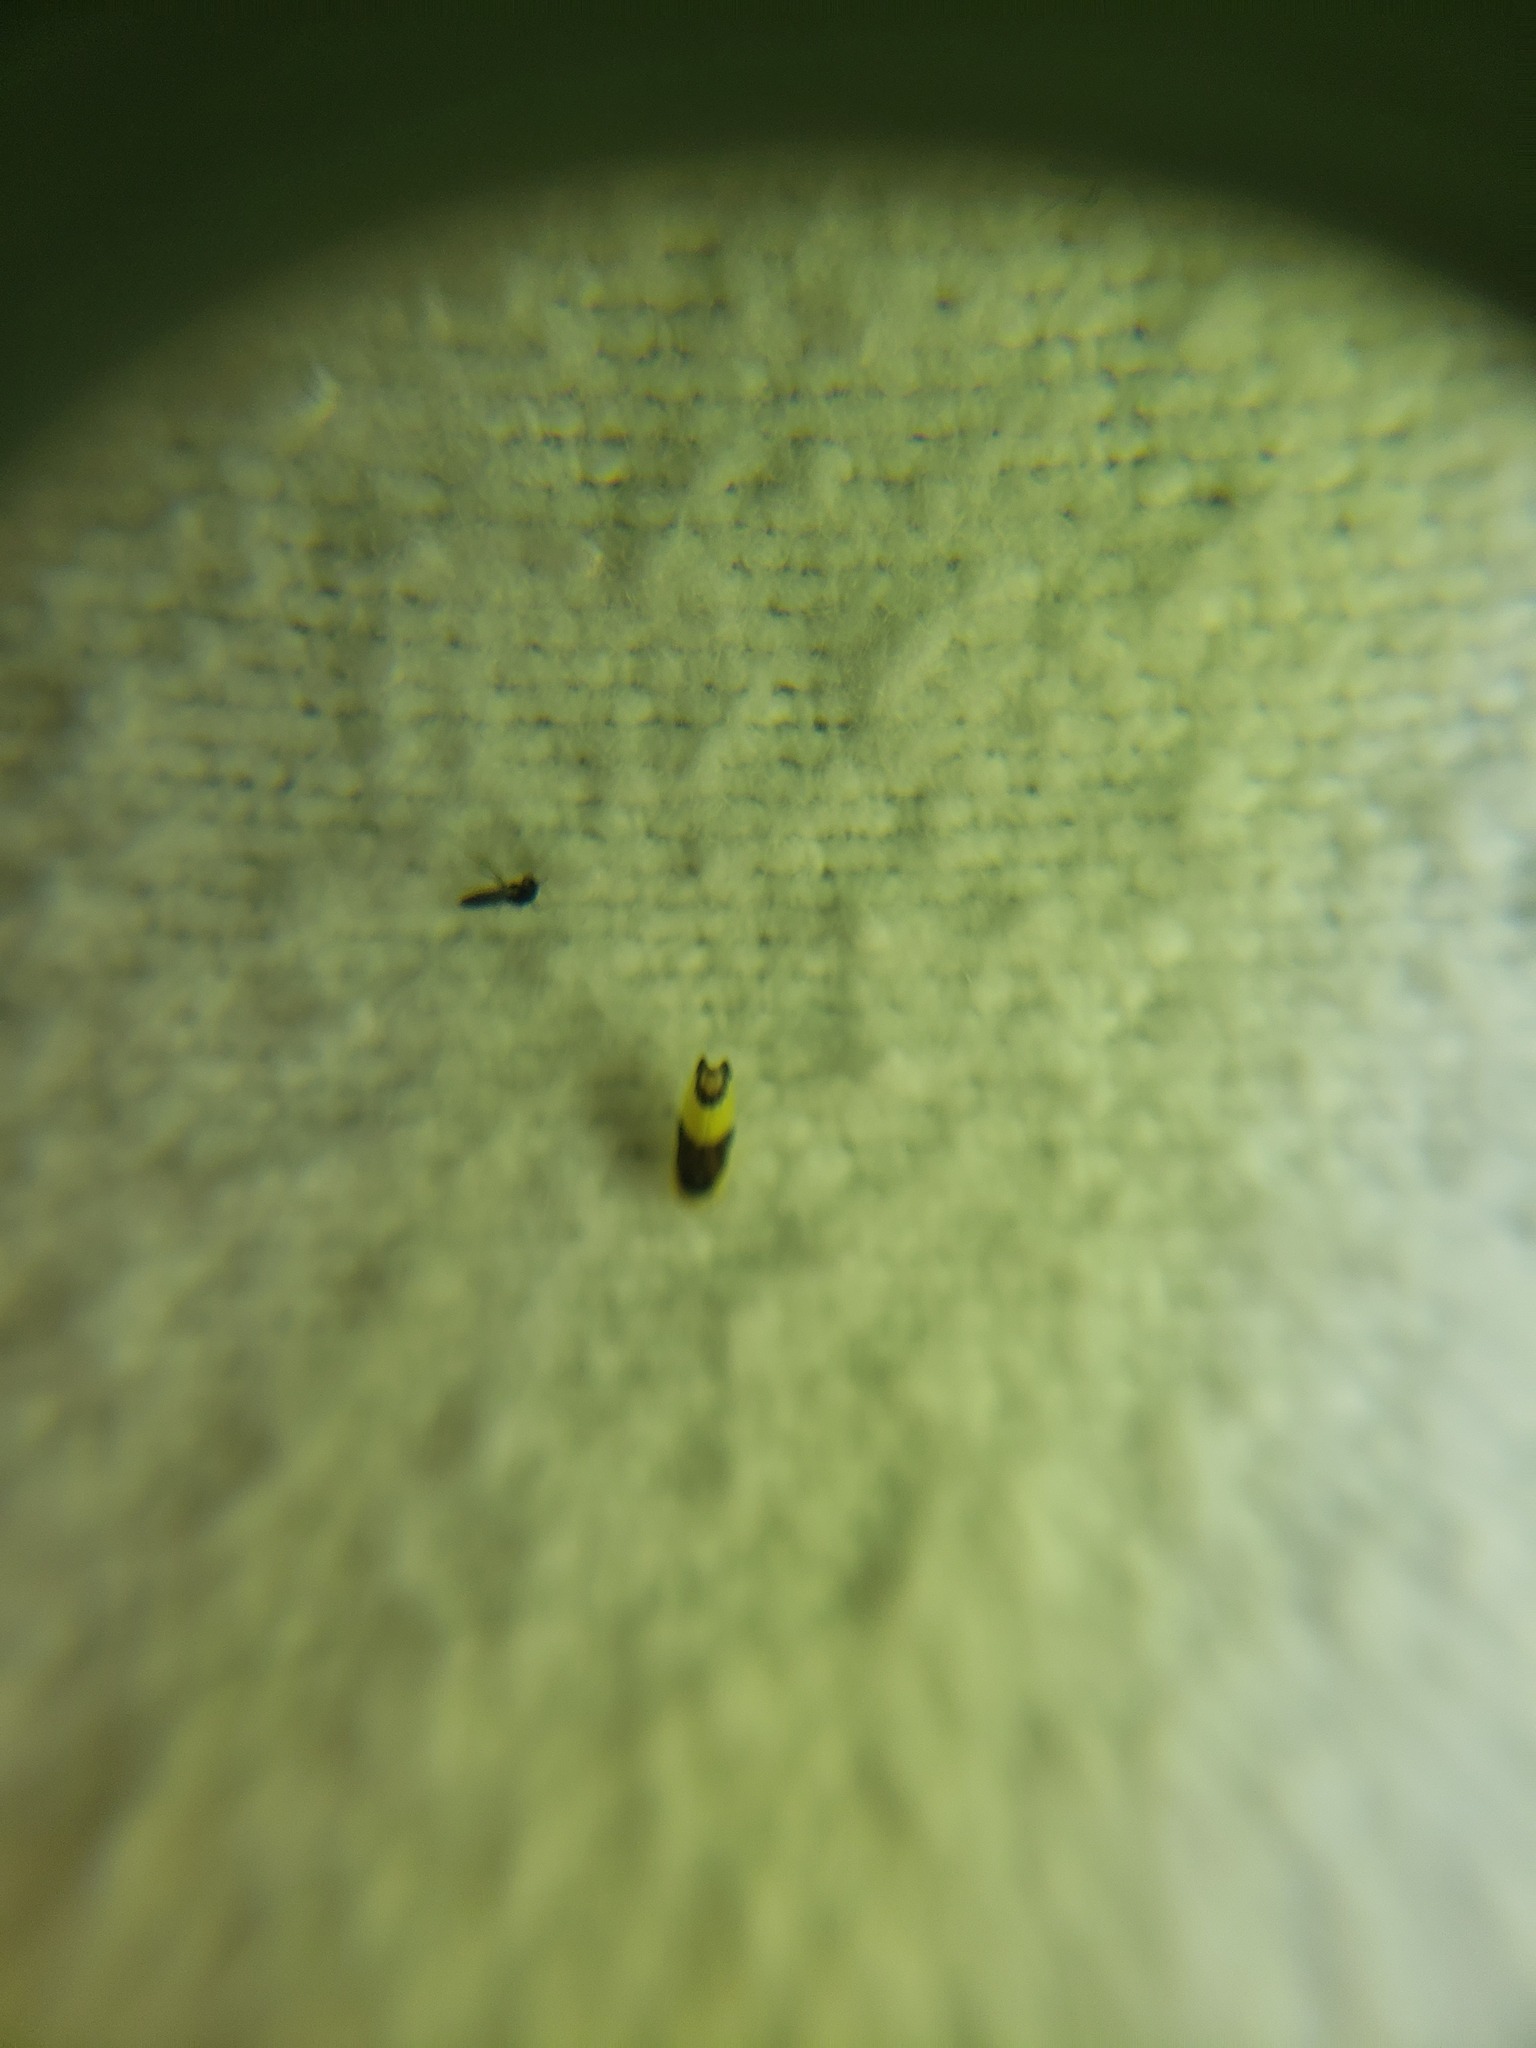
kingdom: Animalia
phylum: Arthropoda
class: Insecta
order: Hemiptera
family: Cicadellidae
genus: Empoa
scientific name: Empoa venusta
